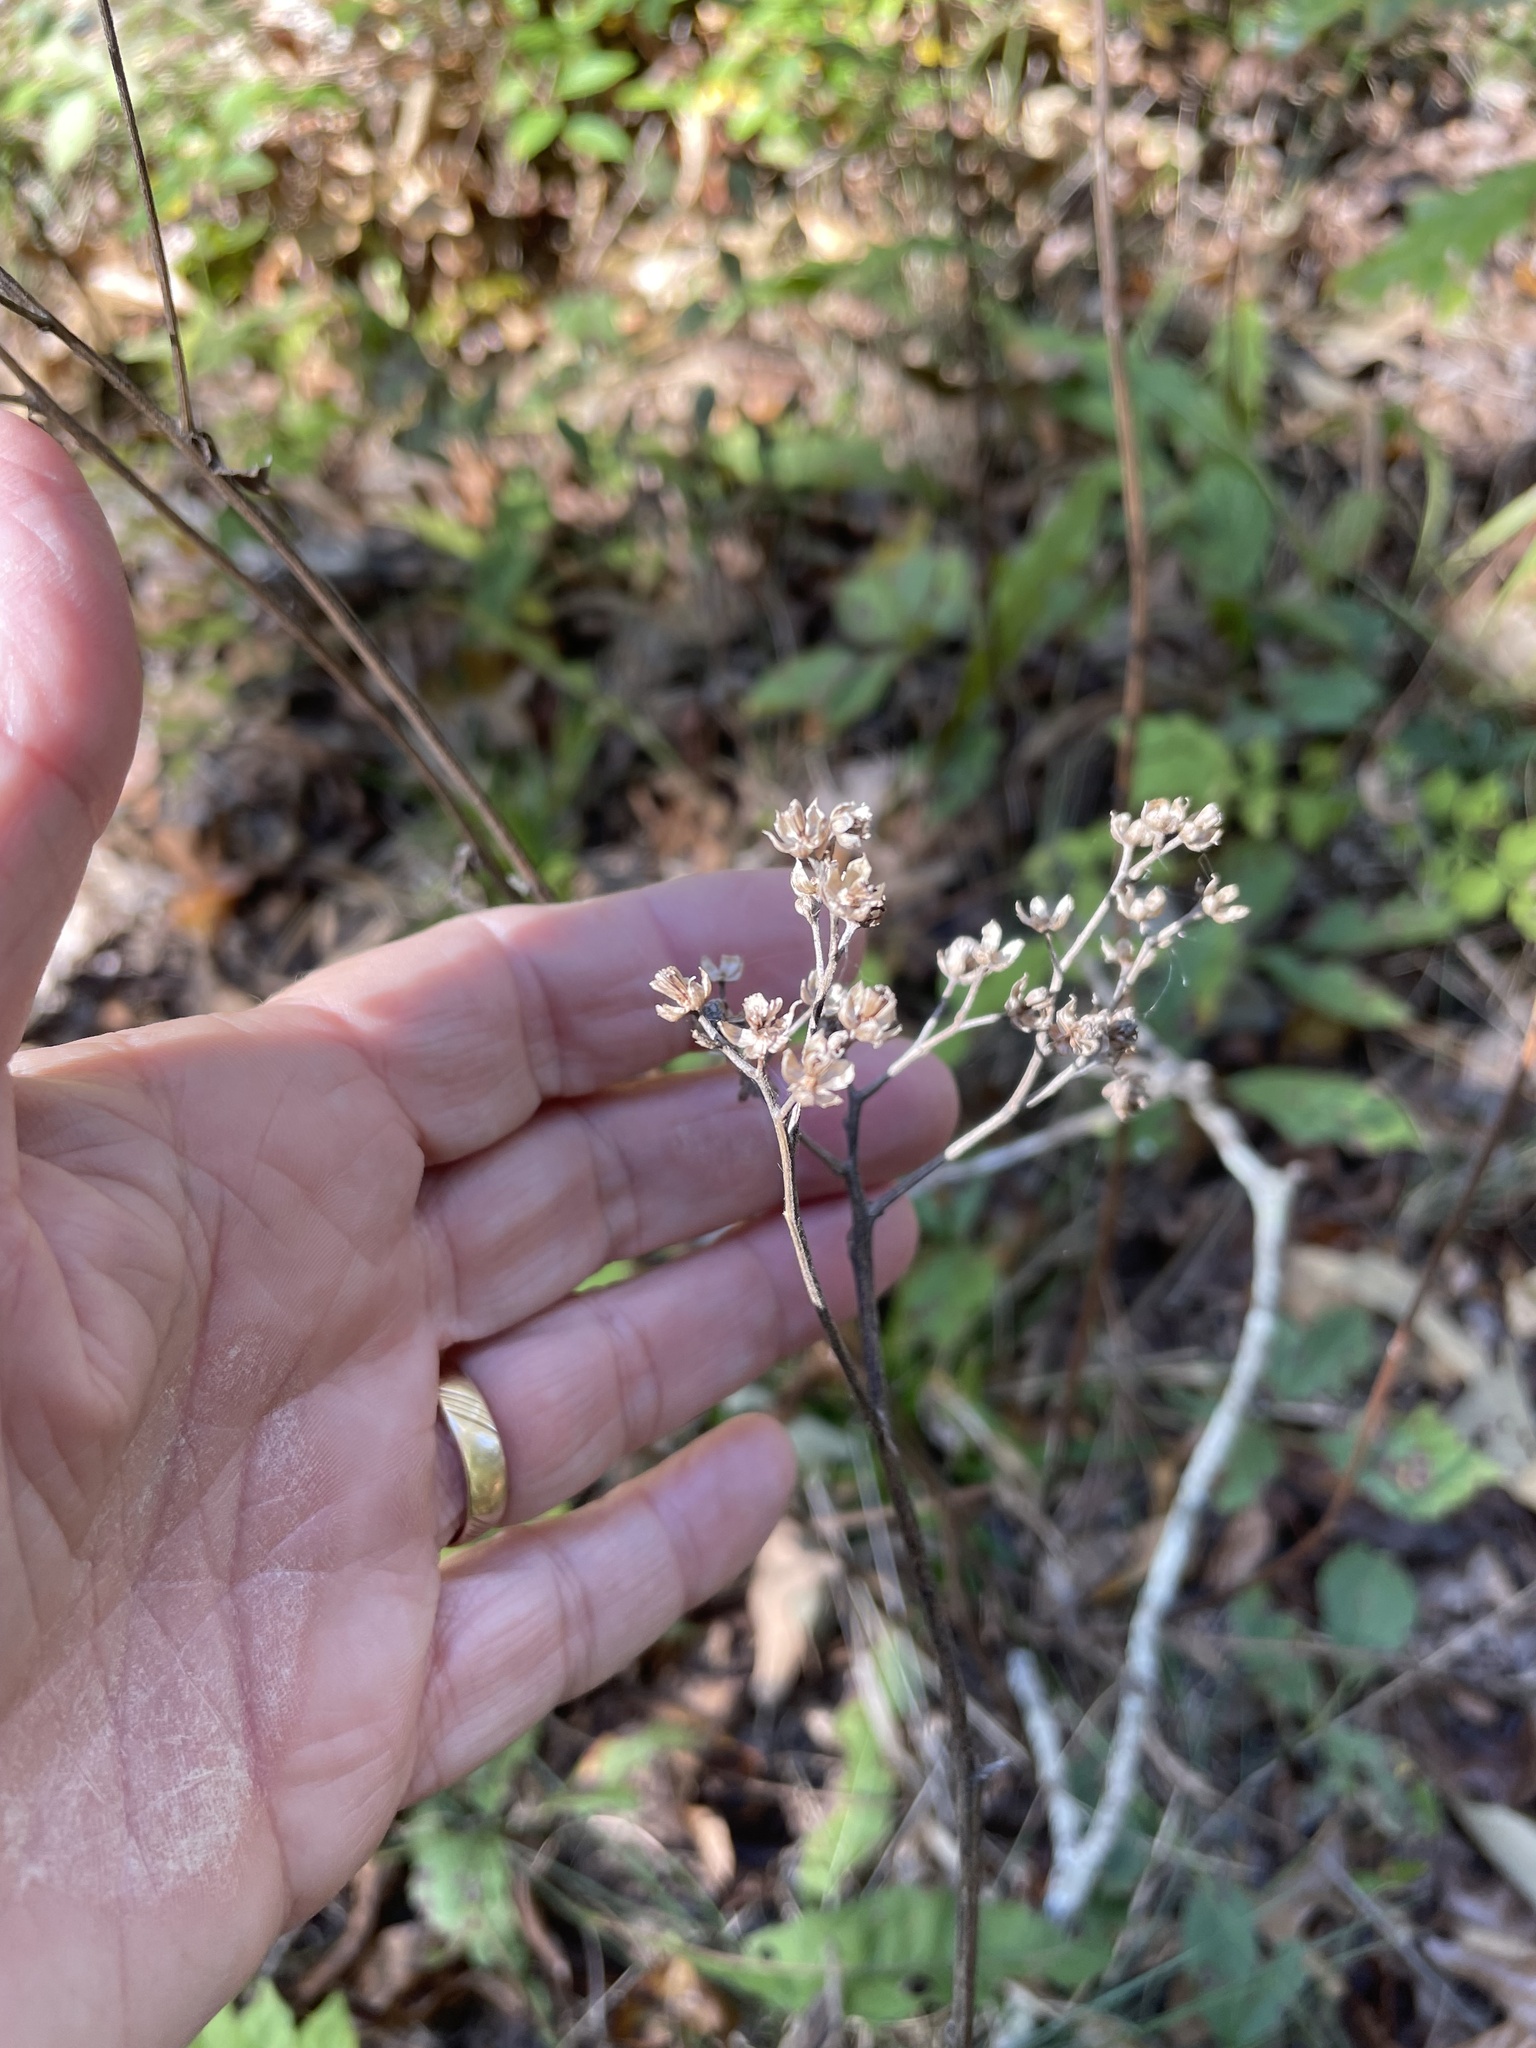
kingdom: Plantae
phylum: Tracheophyta
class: Magnoliopsida
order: Asterales
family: Asteraceae
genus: Parthenium
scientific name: Parthenium integrifolium
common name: American feverfew
